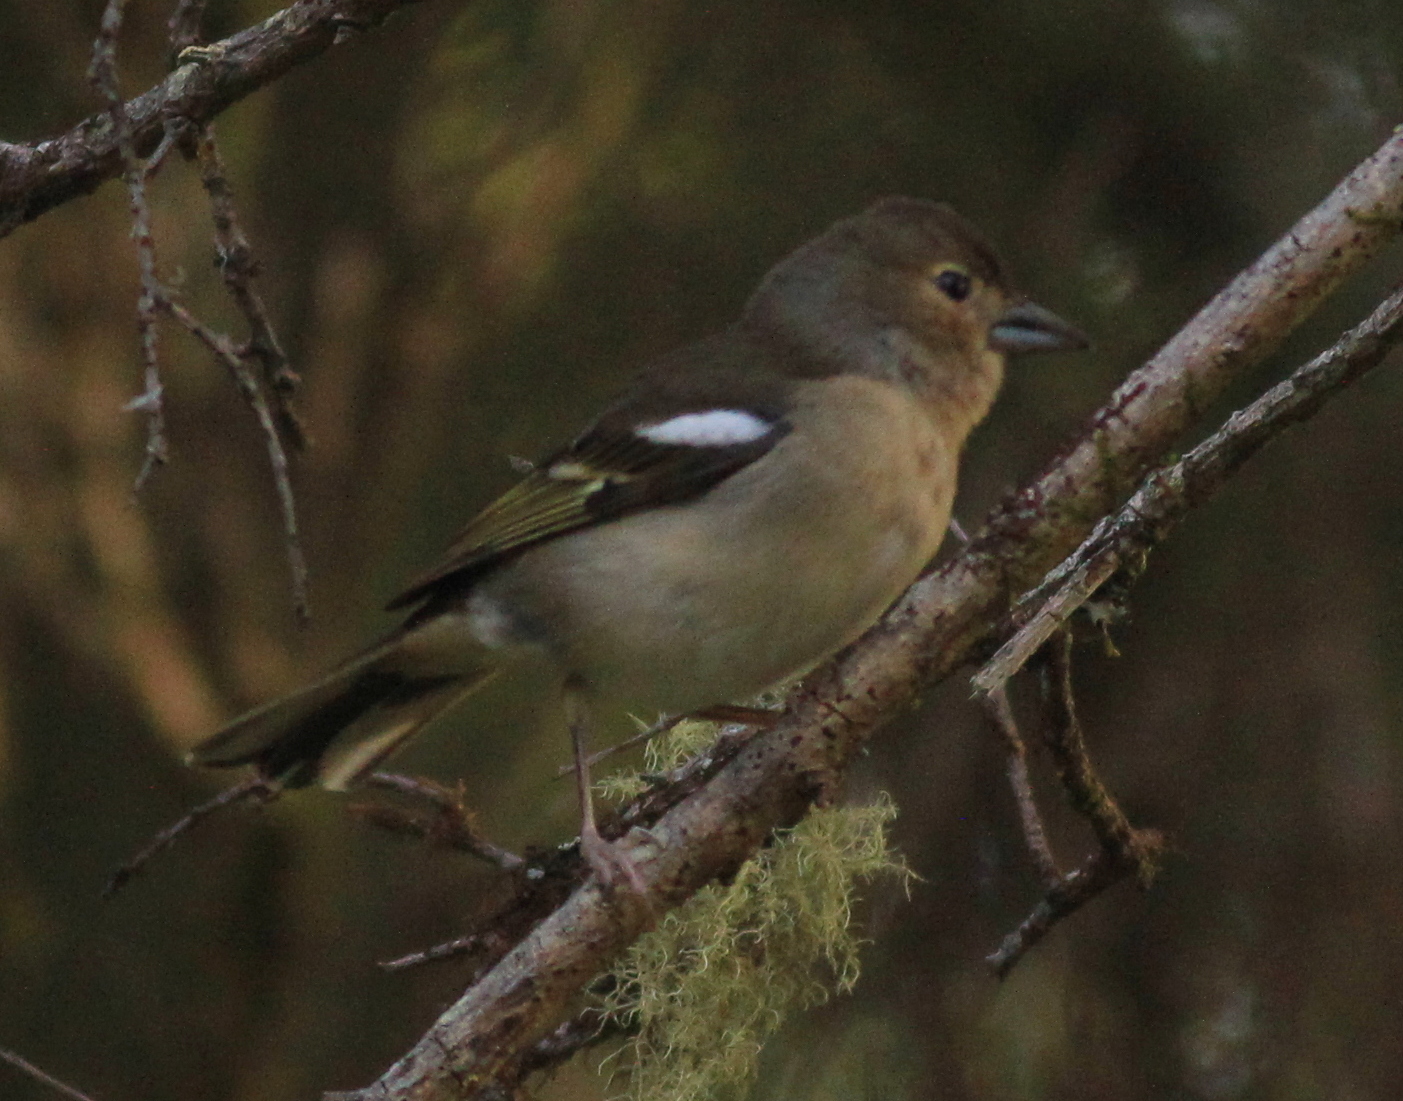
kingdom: Animalia
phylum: Chordata
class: Aves
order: Passeriformes
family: Fringillidae
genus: Fringilla
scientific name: Fringilla canariensis
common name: Canary islands chaffinch
